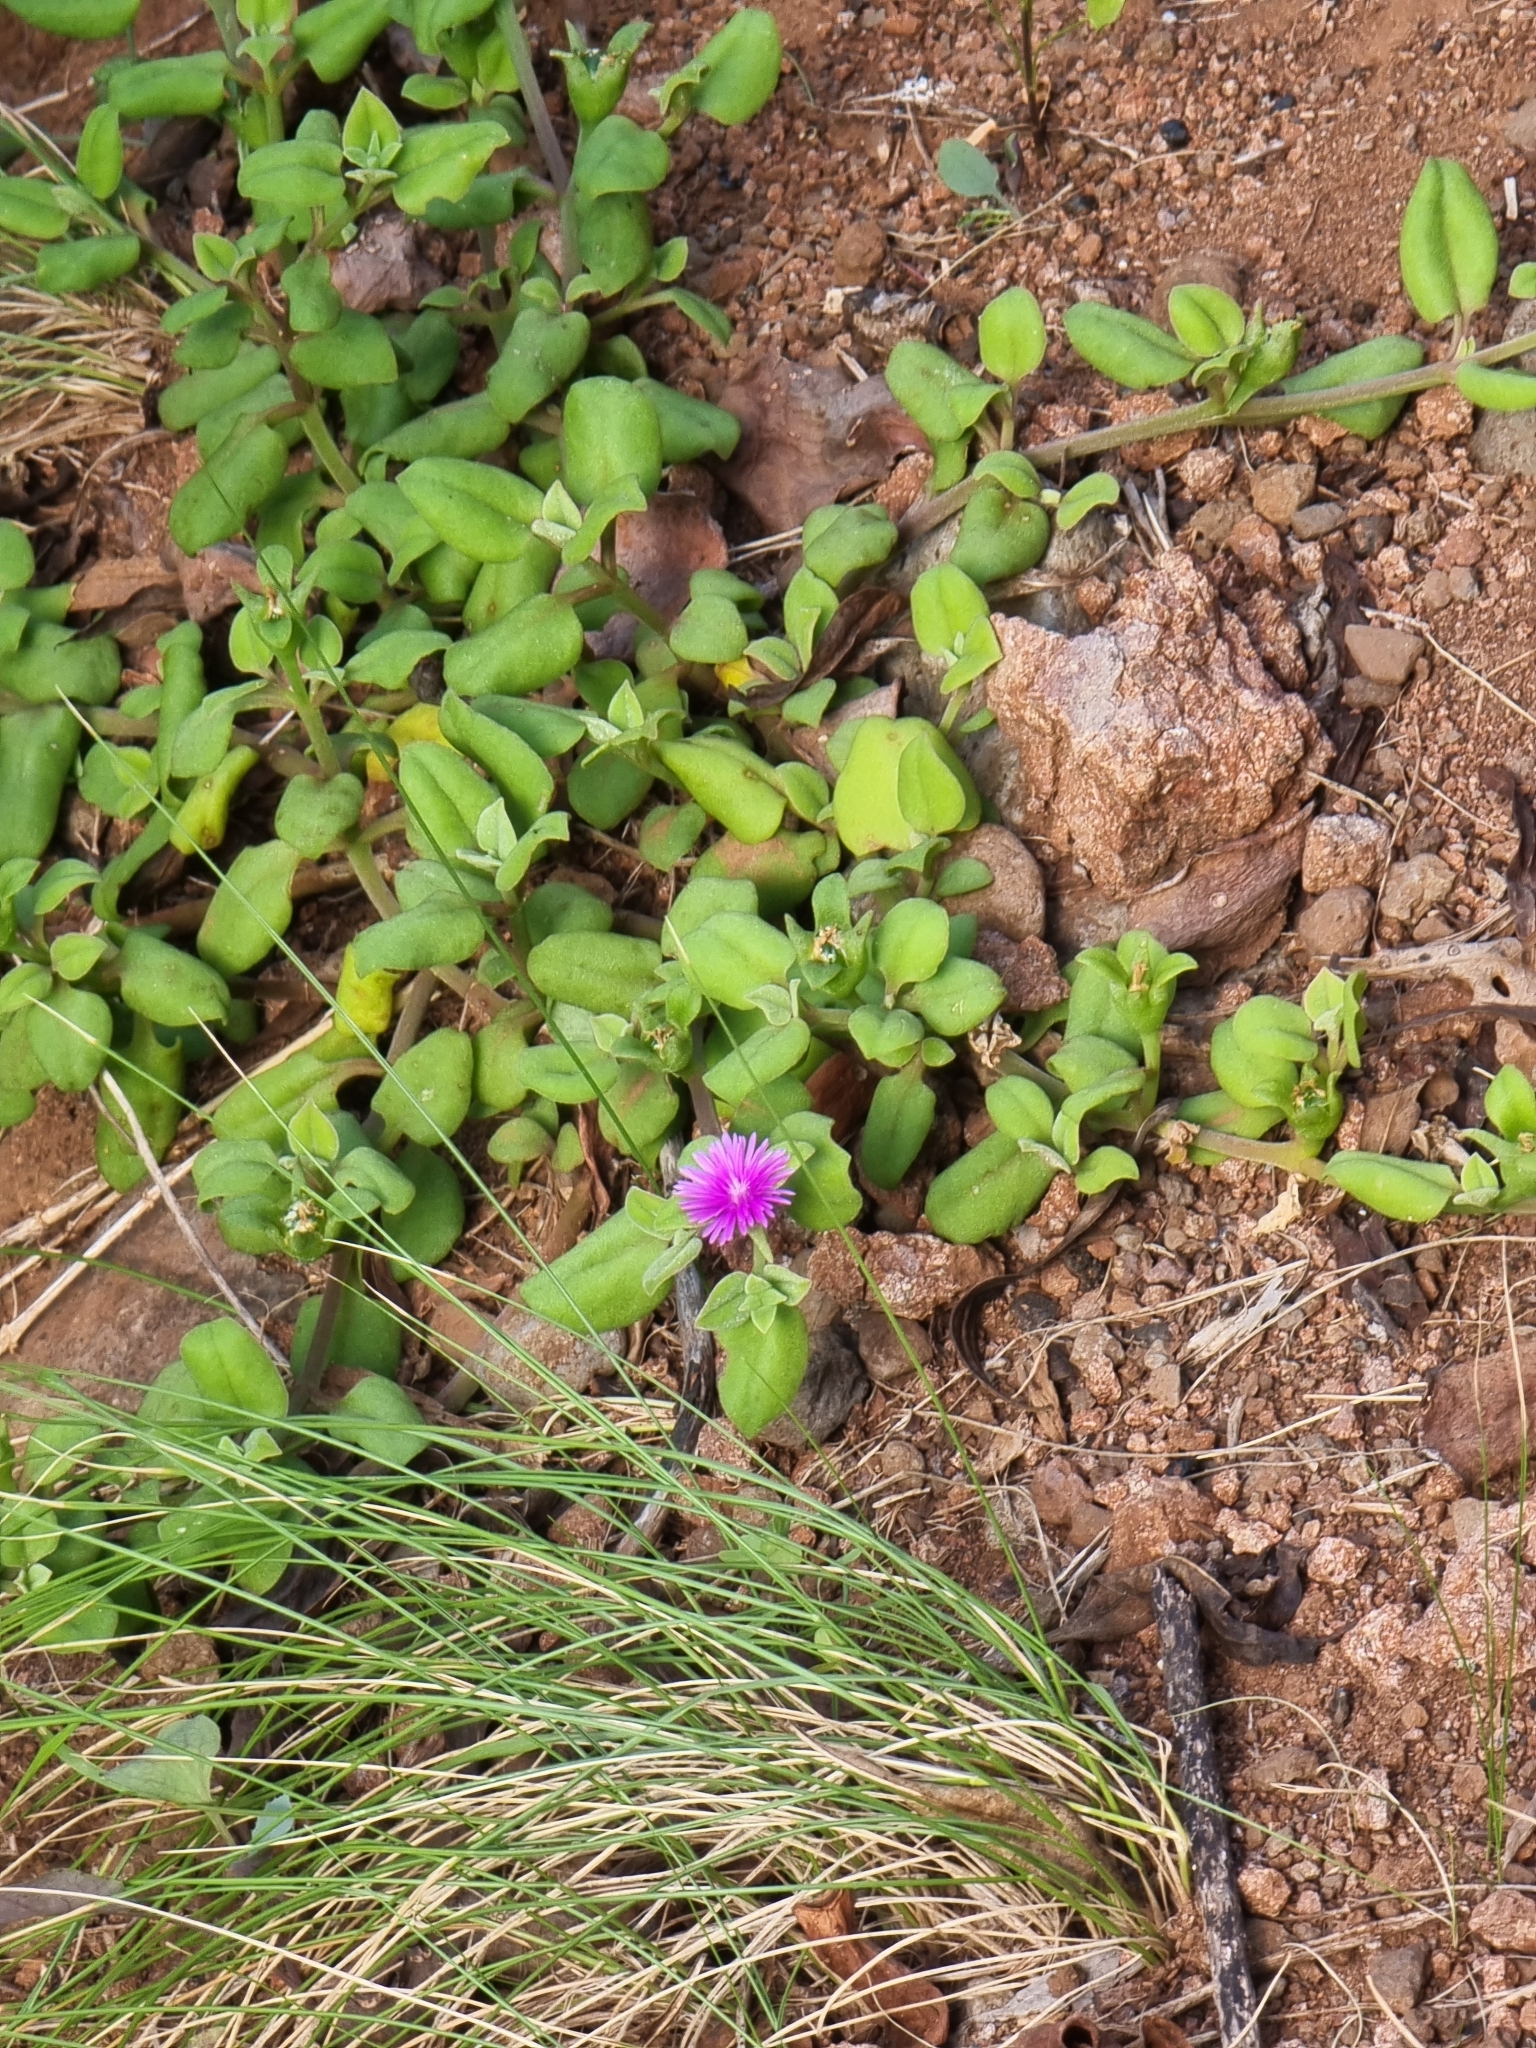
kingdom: Plantae
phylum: Tracheophyta
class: Magnoliopsida
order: Caryophyllales
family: Aizoaceae
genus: Mesembryanthemum
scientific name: Mesembryanthemum cordifolium
